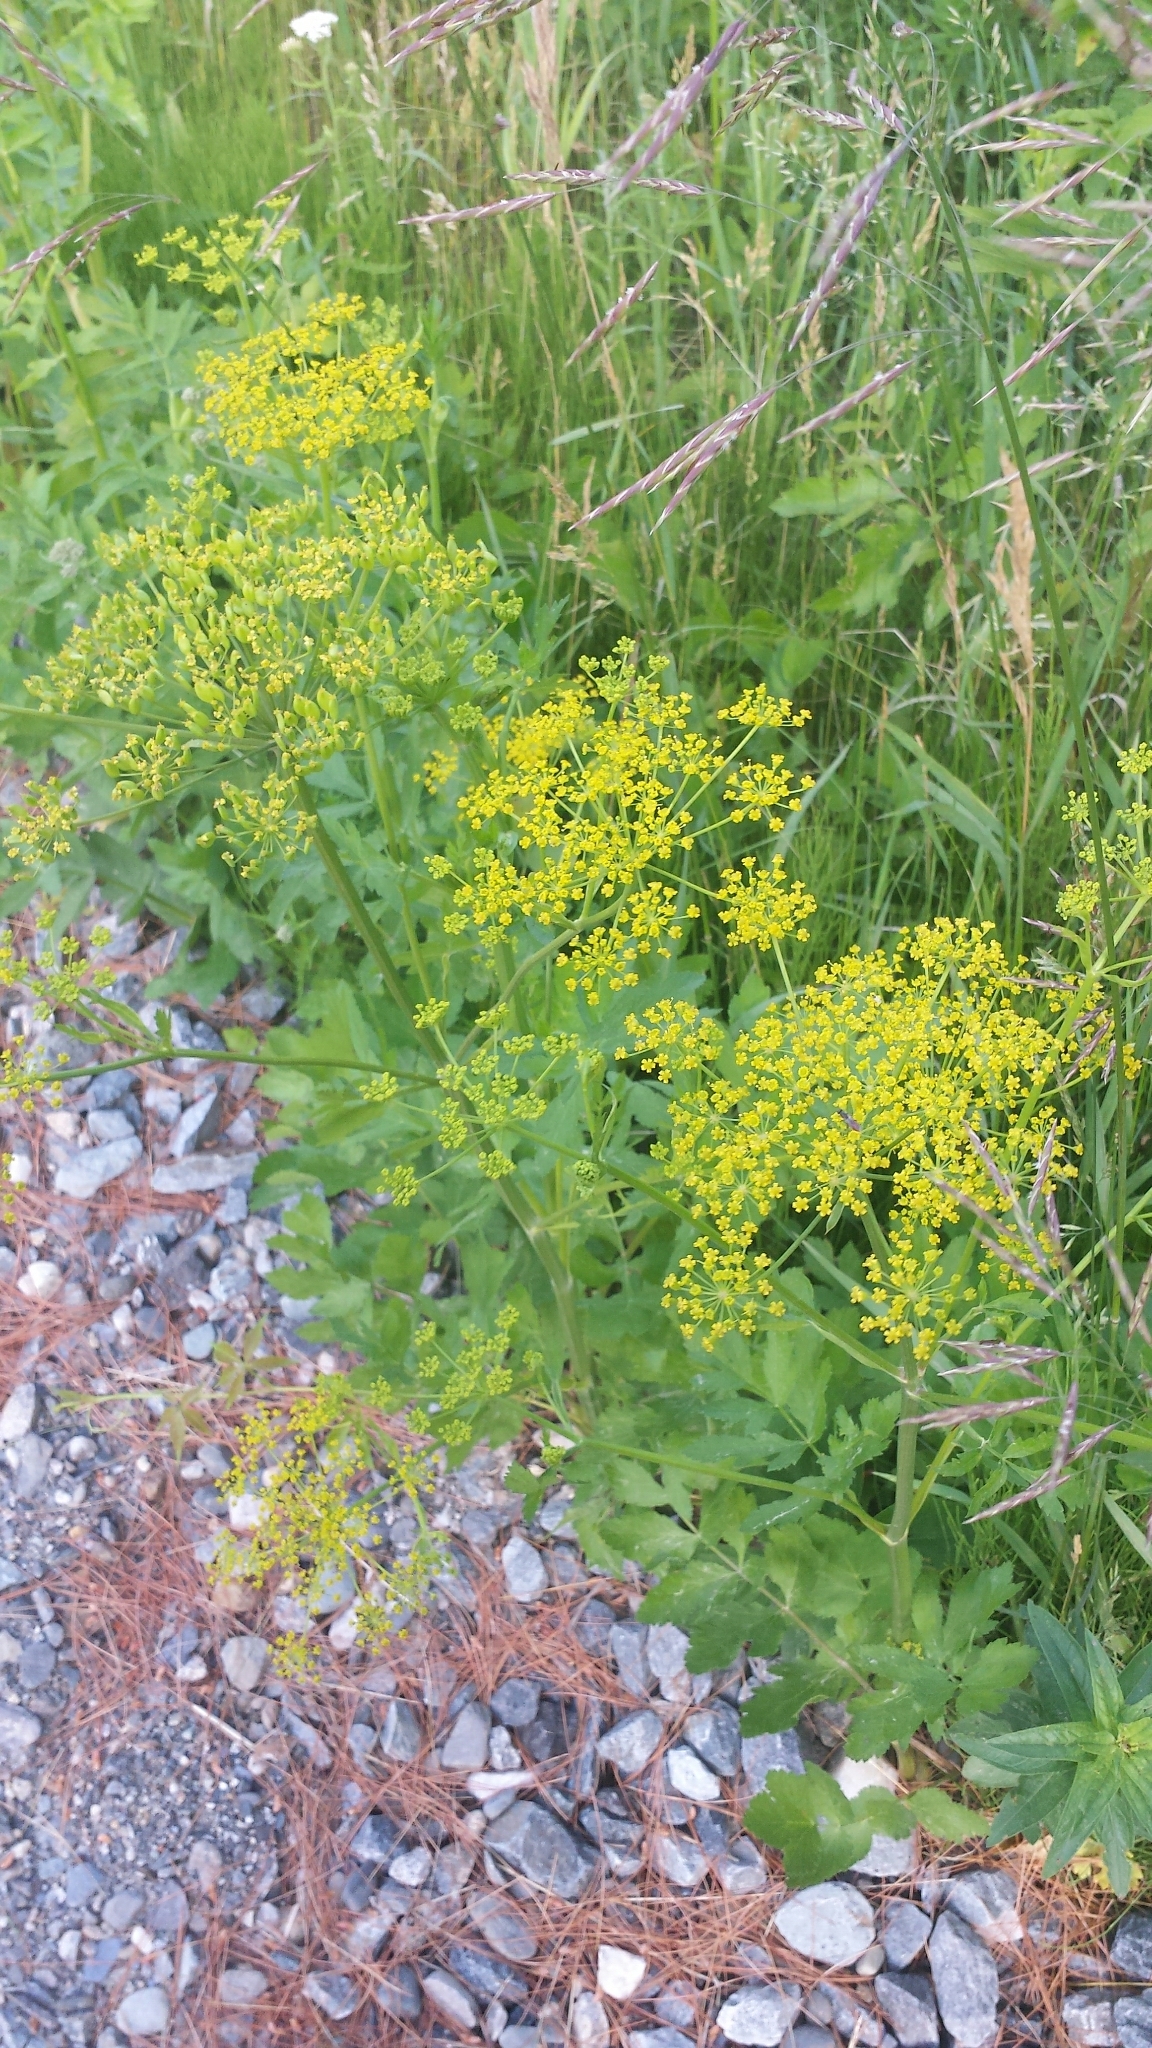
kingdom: Plantae
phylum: Tracheophyta
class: Magnoliopsida
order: Apiales
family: Apiaceae
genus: Pastinaca
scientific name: Pastinaca sativa
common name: Wild parsnip
